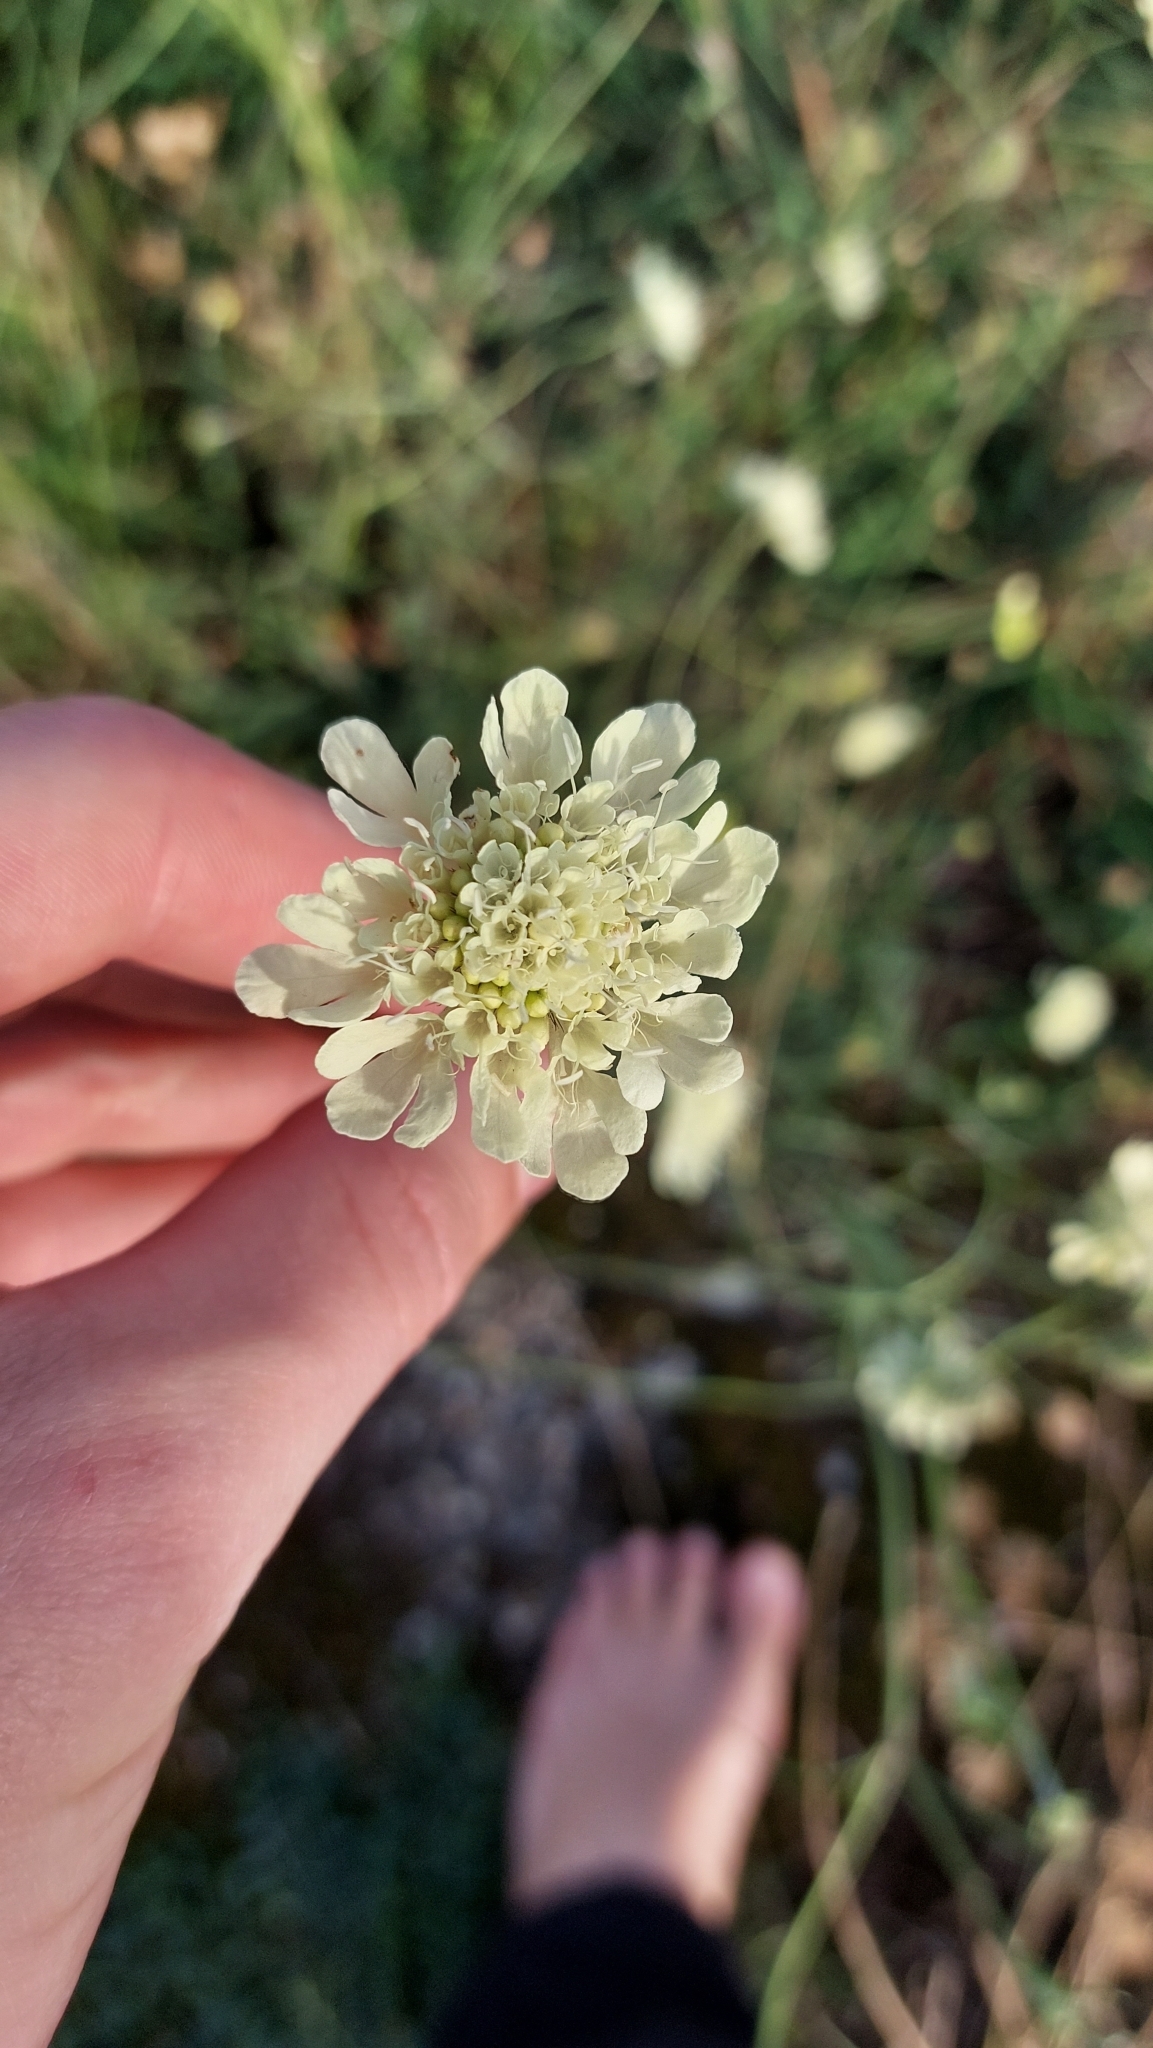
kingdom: Plantae
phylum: Tracheophyta
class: Magnoliopsida
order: Dipsacales
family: Caprifoliaceae
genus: Scabiosa
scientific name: Scabiosa ochroleuca
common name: Cream pincushions
